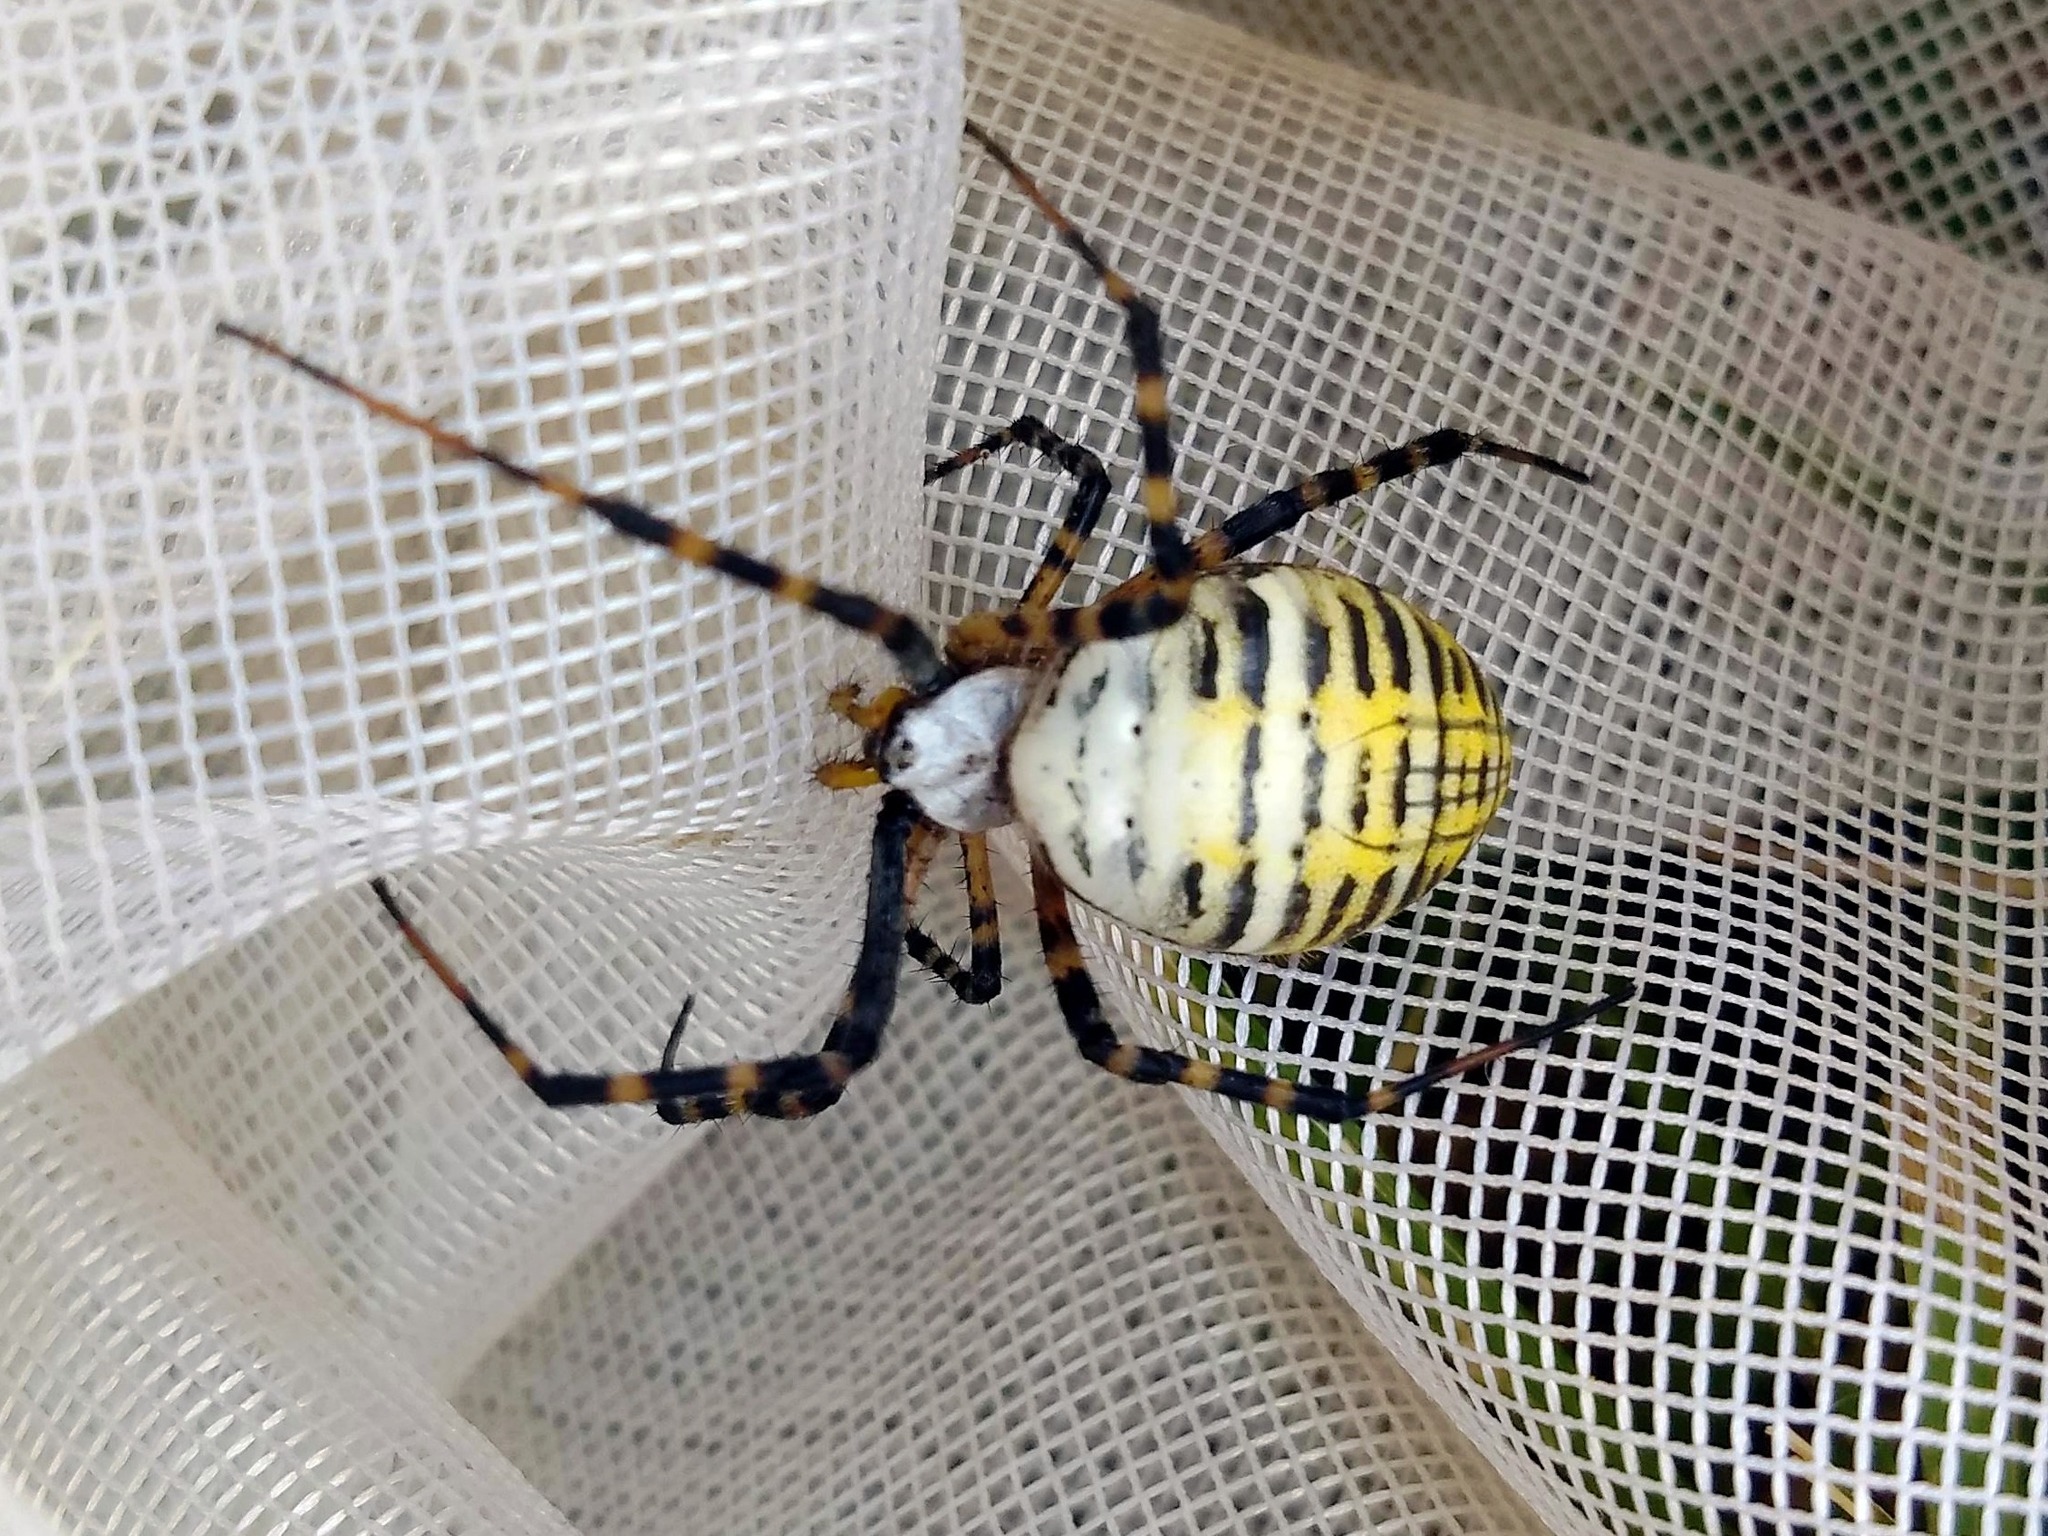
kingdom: Animalia
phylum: Arthropoda
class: Arachnida
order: Araneae
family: Araneidae
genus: Argiope
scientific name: Argiope trifasciata
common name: Banded garden spider
